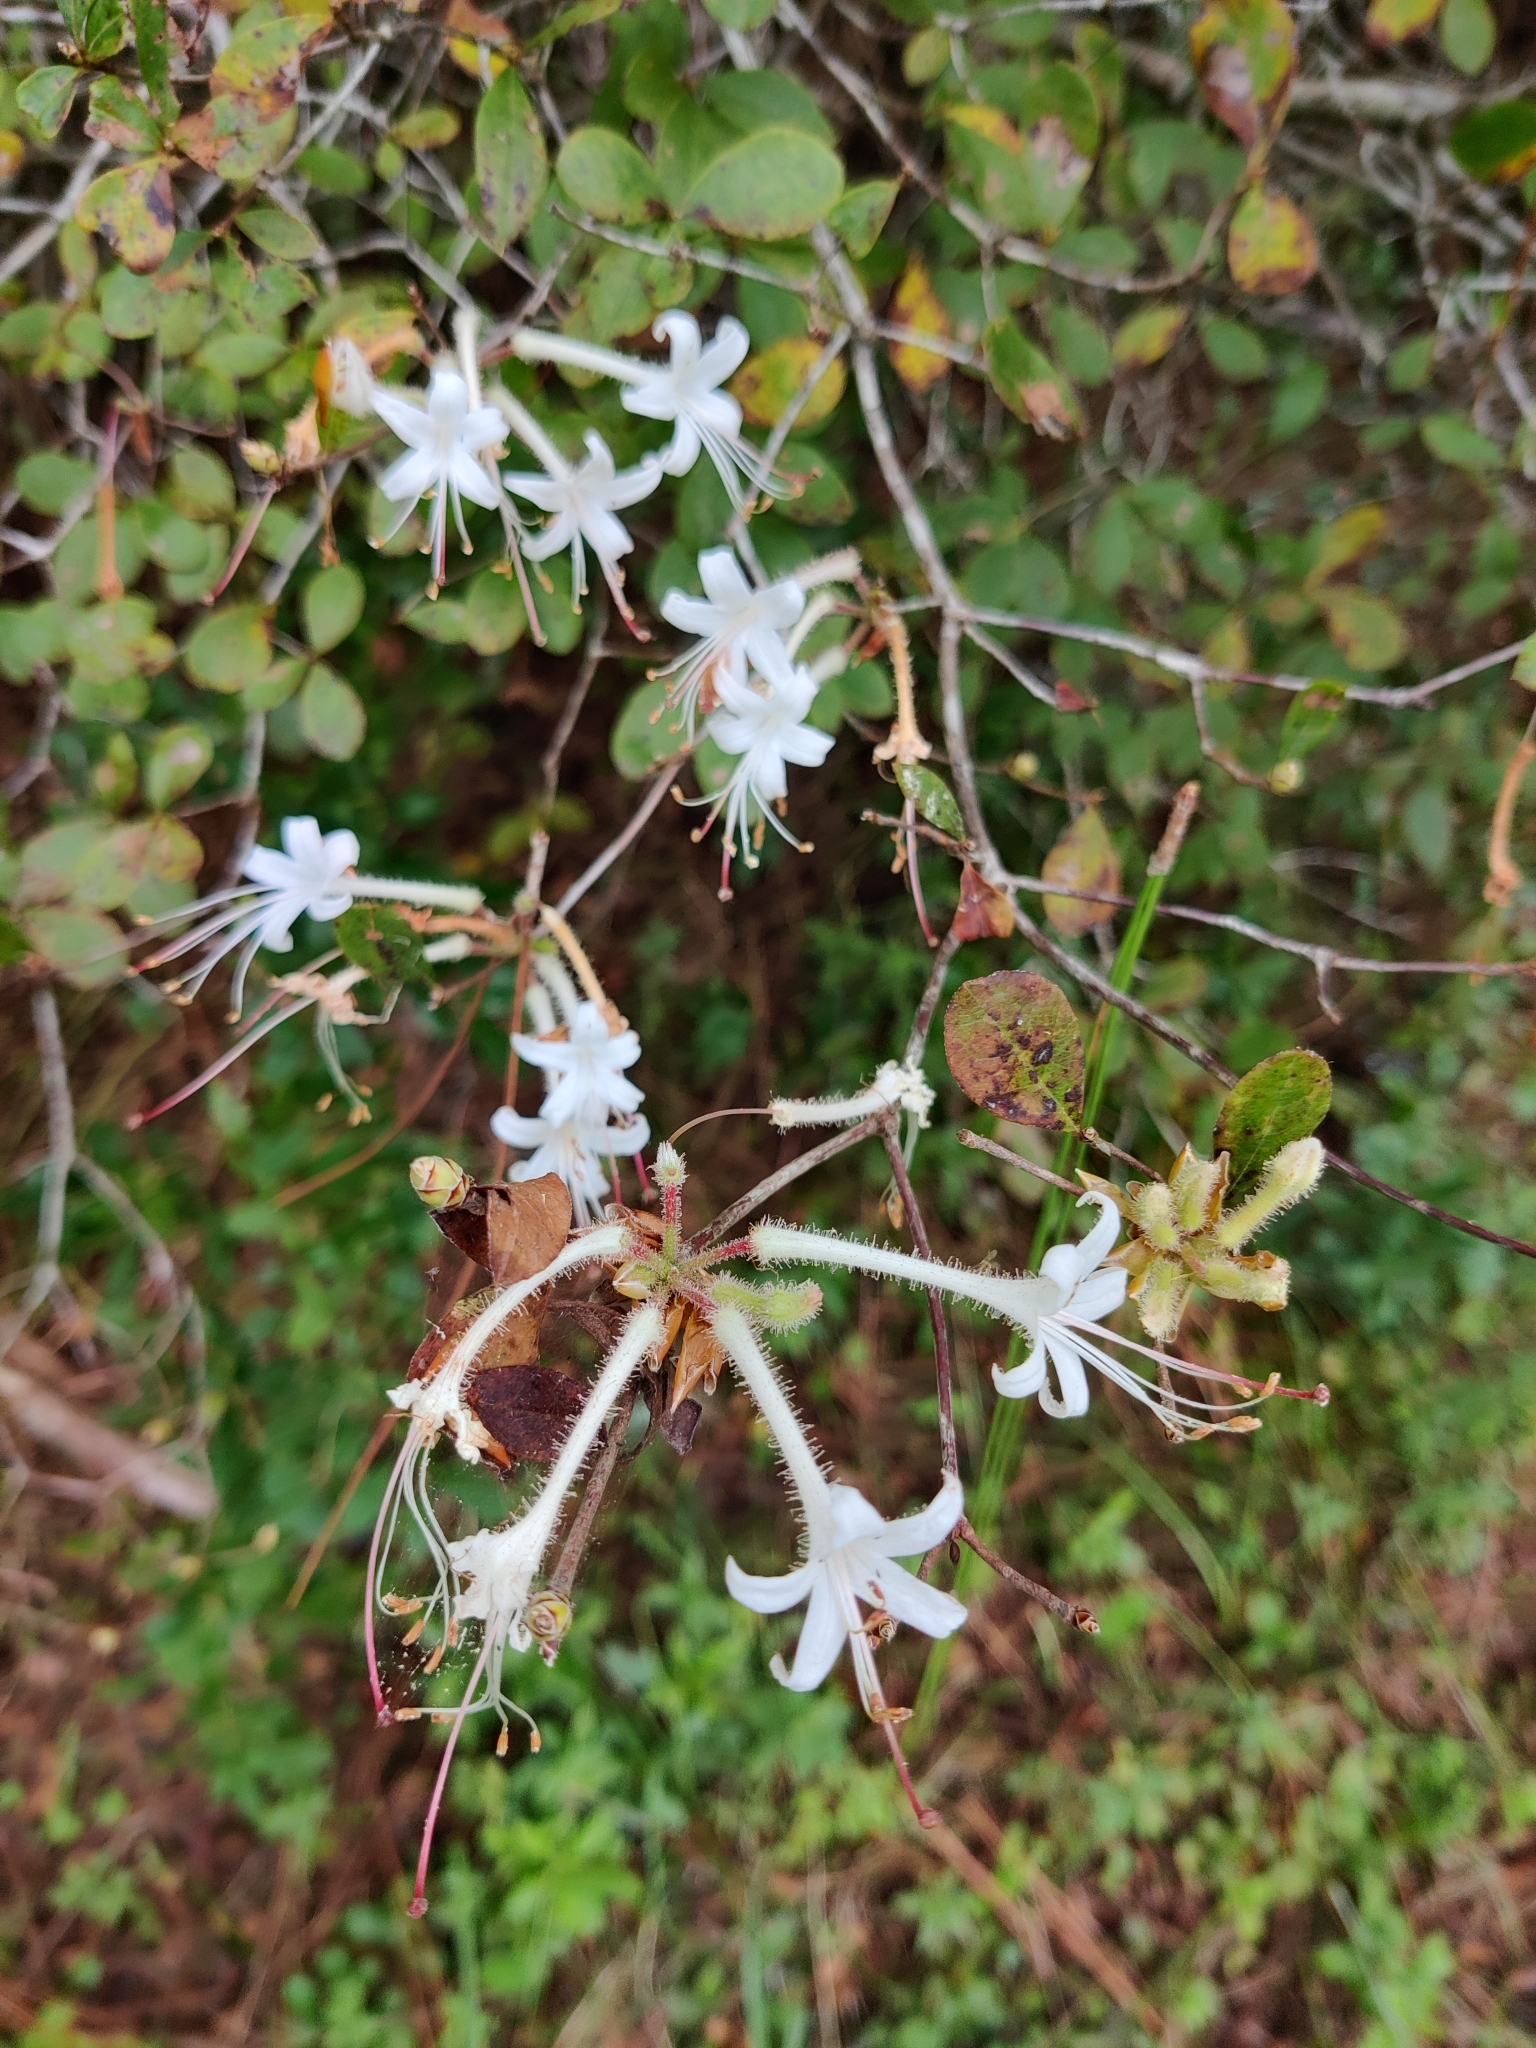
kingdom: Plantae
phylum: Tracheophyta
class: Magnoliopsida
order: Ericales
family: Ericaceae
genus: Rhododendron
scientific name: Rhododendron serrulatum
